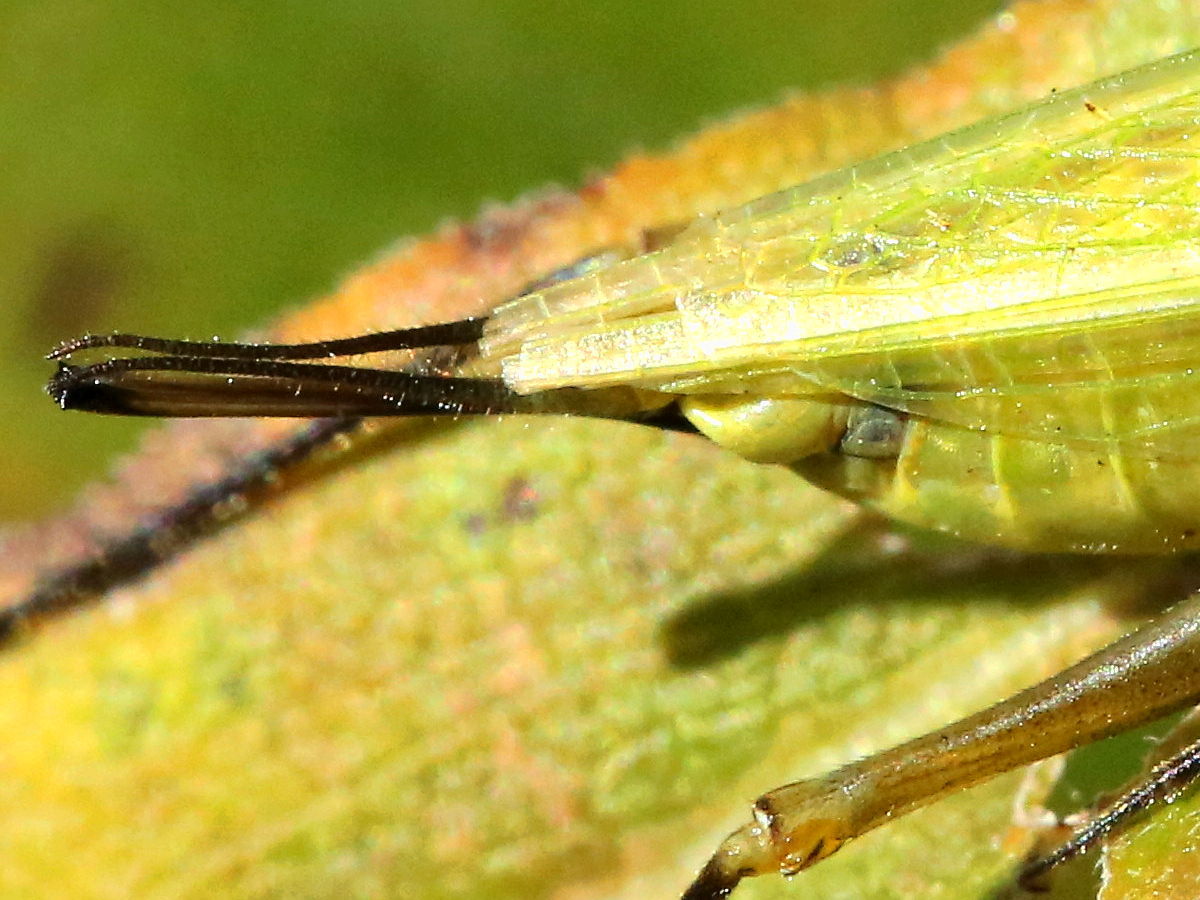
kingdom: Animalia
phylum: Arthropoda
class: Insecta
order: Orthoptera
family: Gryllidae
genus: Oecanthus
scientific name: Oecanthus forbesi
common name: Forbes’s tree cricket
